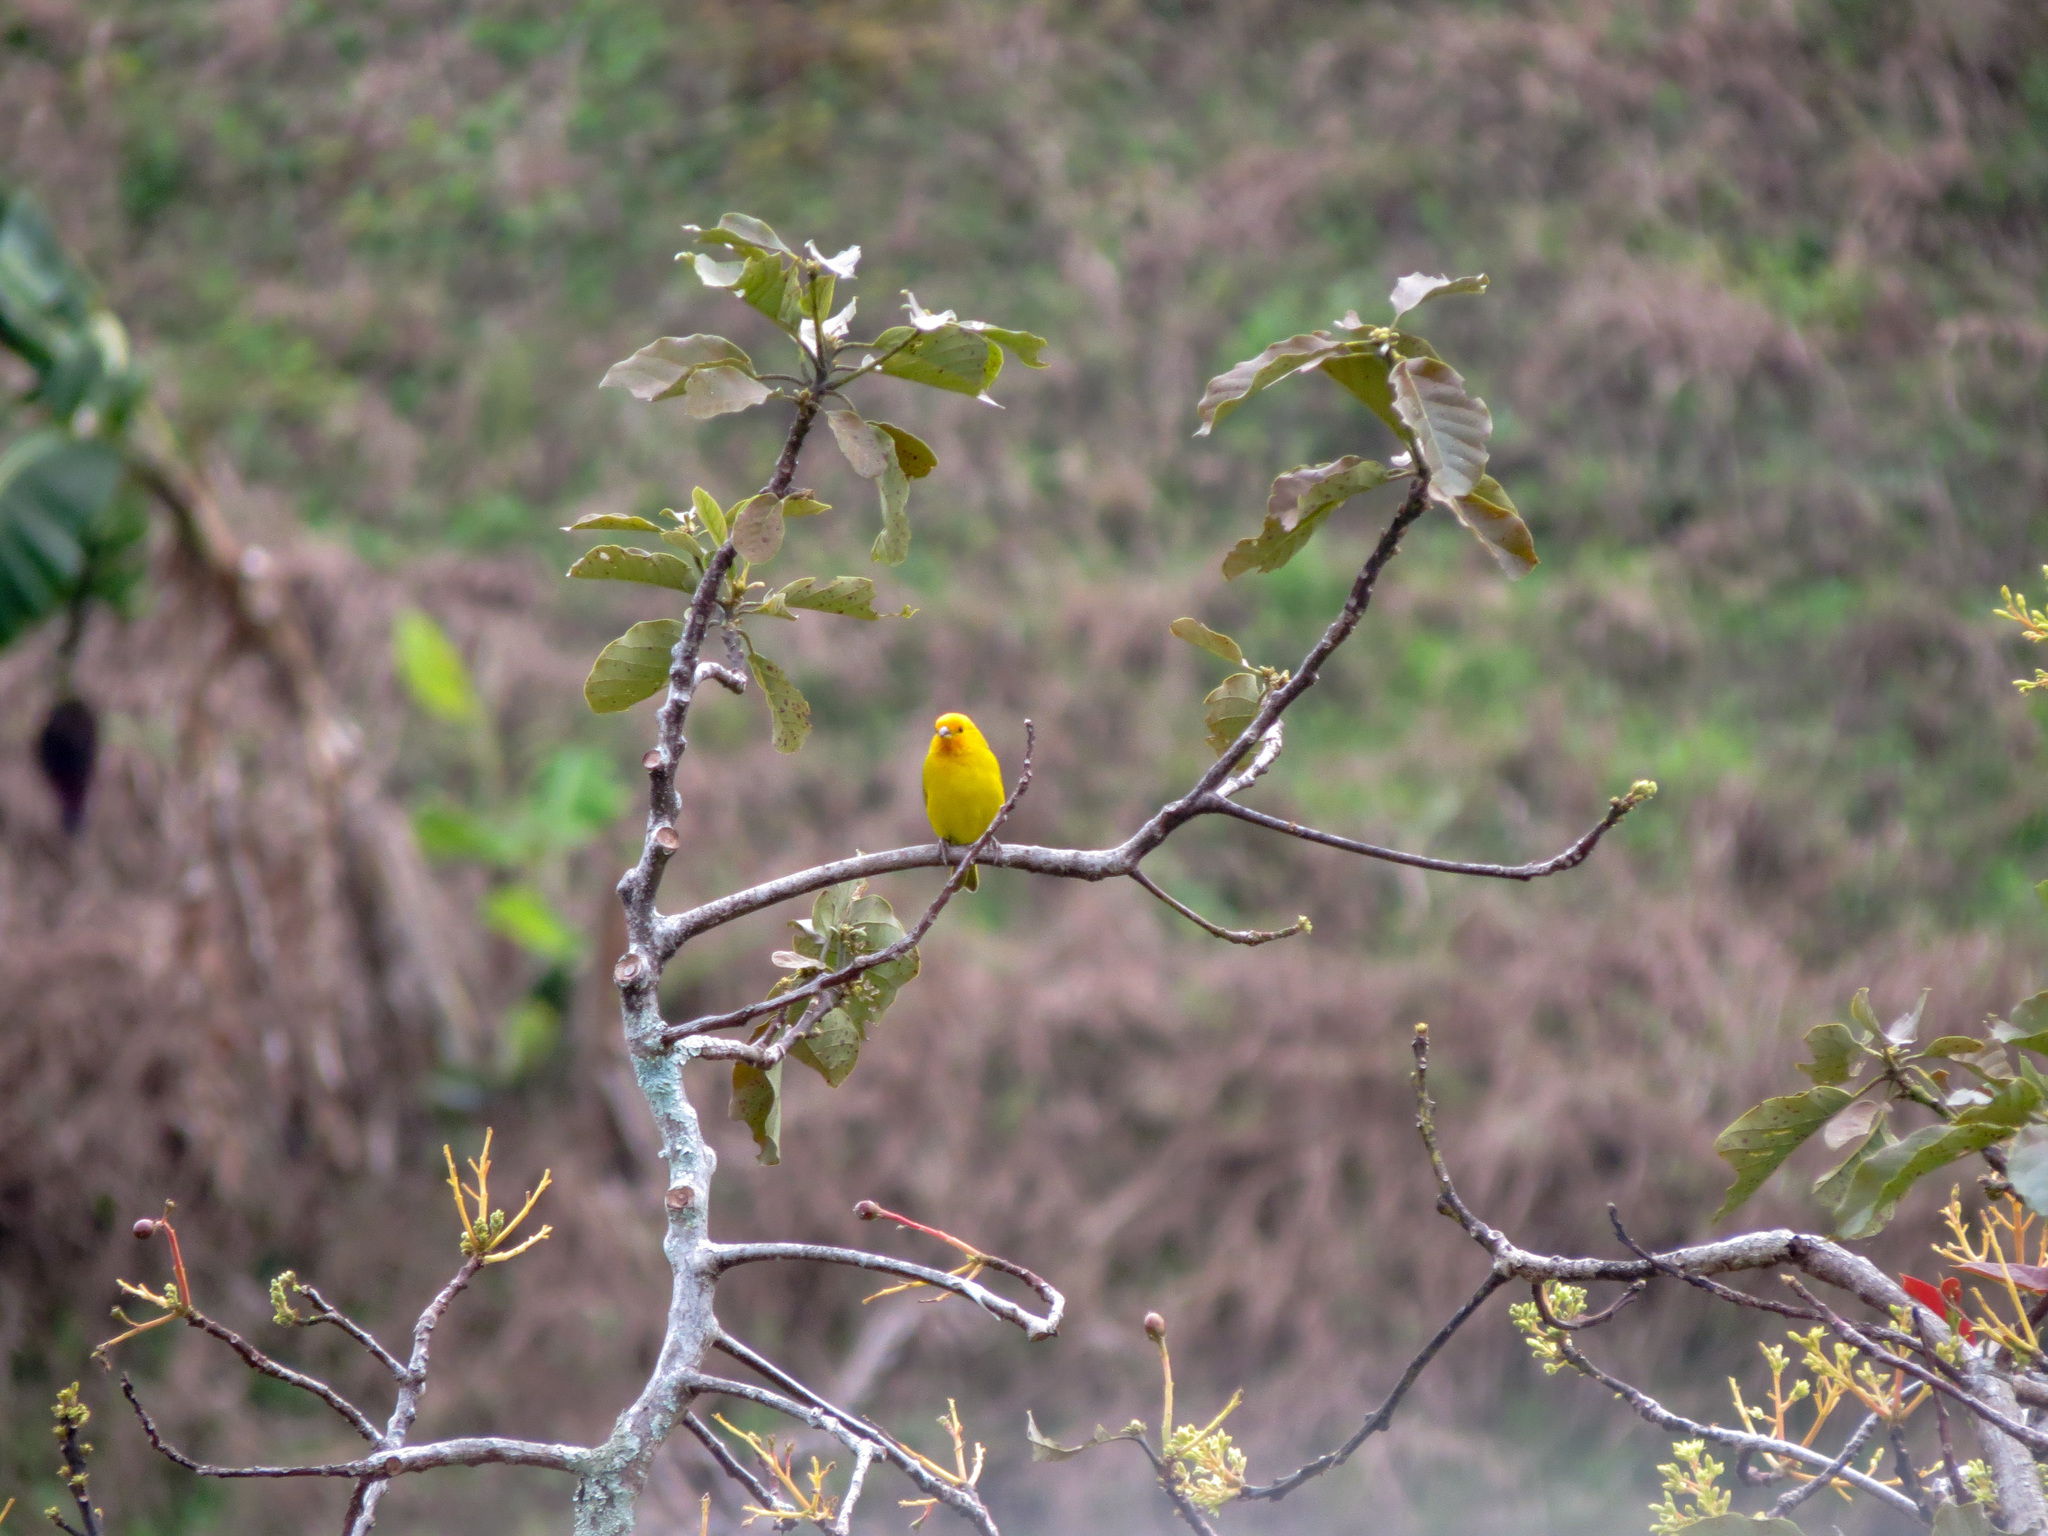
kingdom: Animalia
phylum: Chordata
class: Aves
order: Passeriformes
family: Thraupidae
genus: Sicalis
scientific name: Sicalis flaveola
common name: Saffron finch
